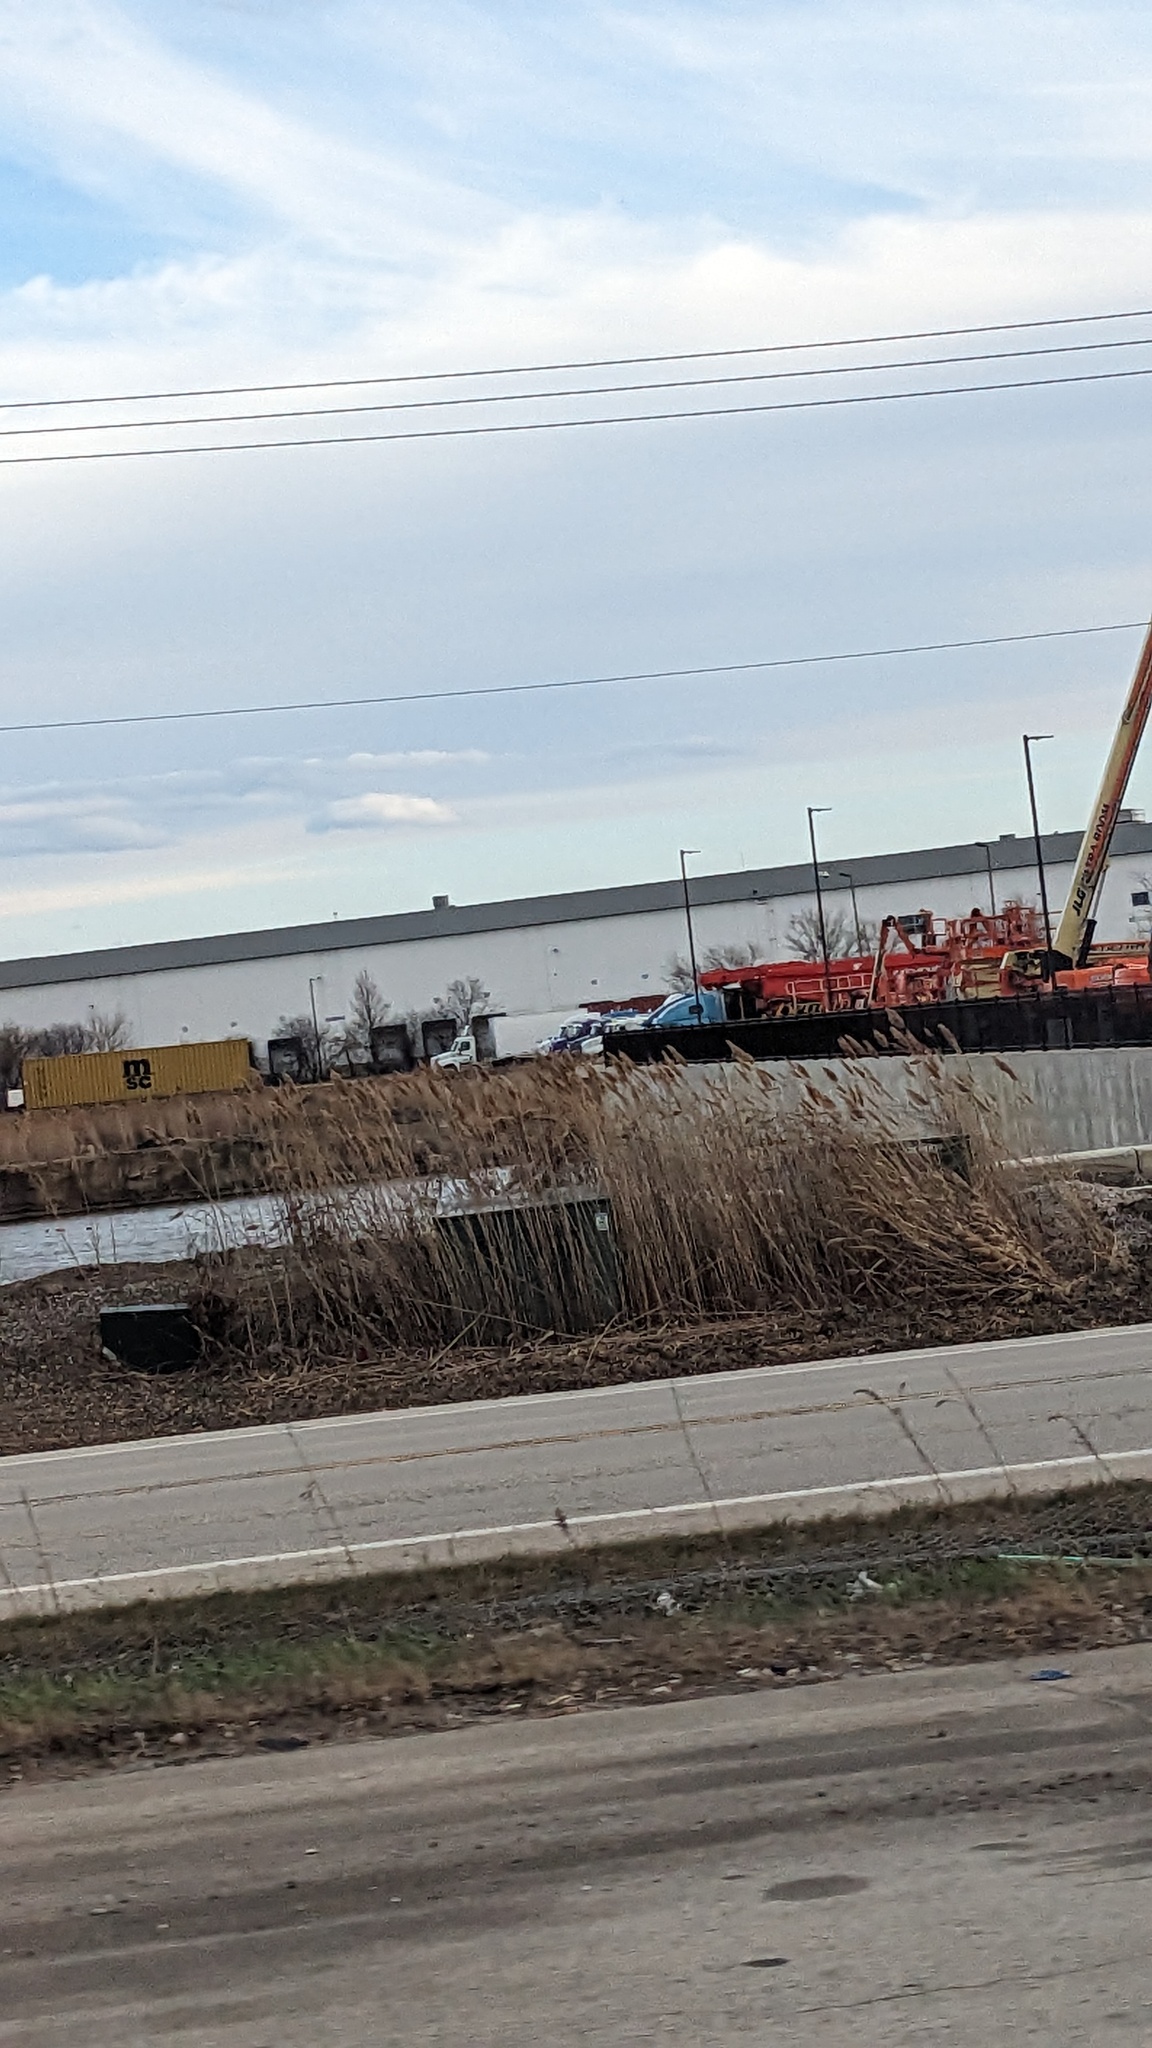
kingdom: Plantae
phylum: Tracheophyta
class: Liliopsida
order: Poales
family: Poaceae
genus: Phragmites
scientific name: Phragmites australis
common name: Common reed
